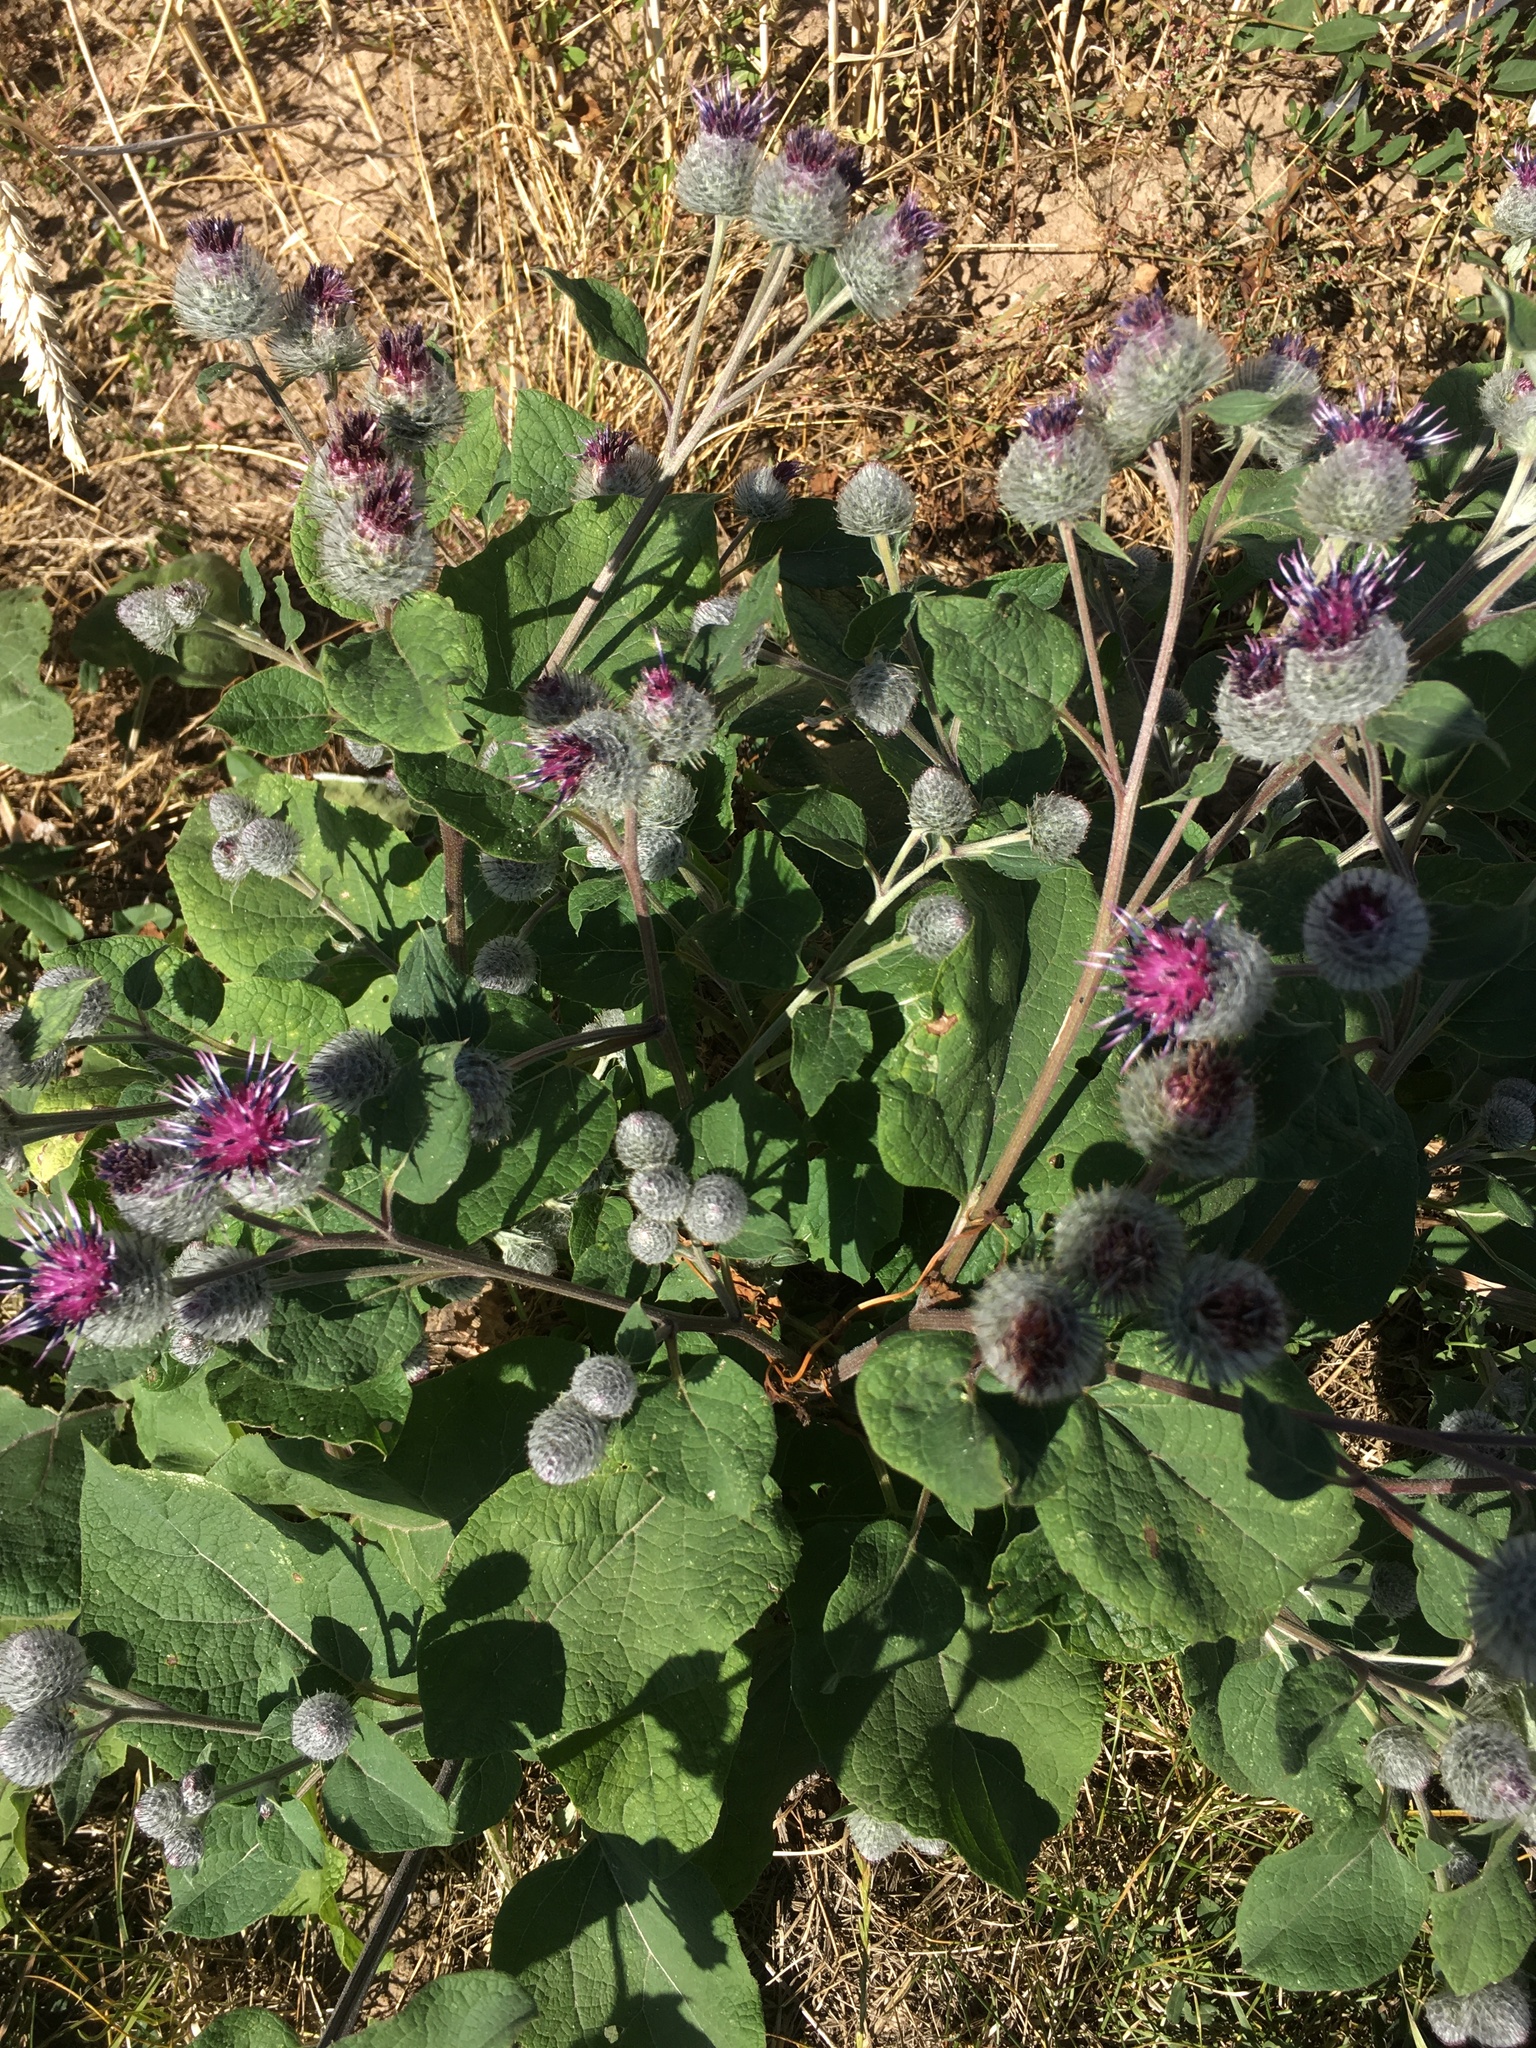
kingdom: Plantae
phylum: Tracheophyta
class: Magnoliopsida
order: Asterales
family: Asteraceae
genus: Arctium
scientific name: Arctium tomentosum
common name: Woolly burdock
